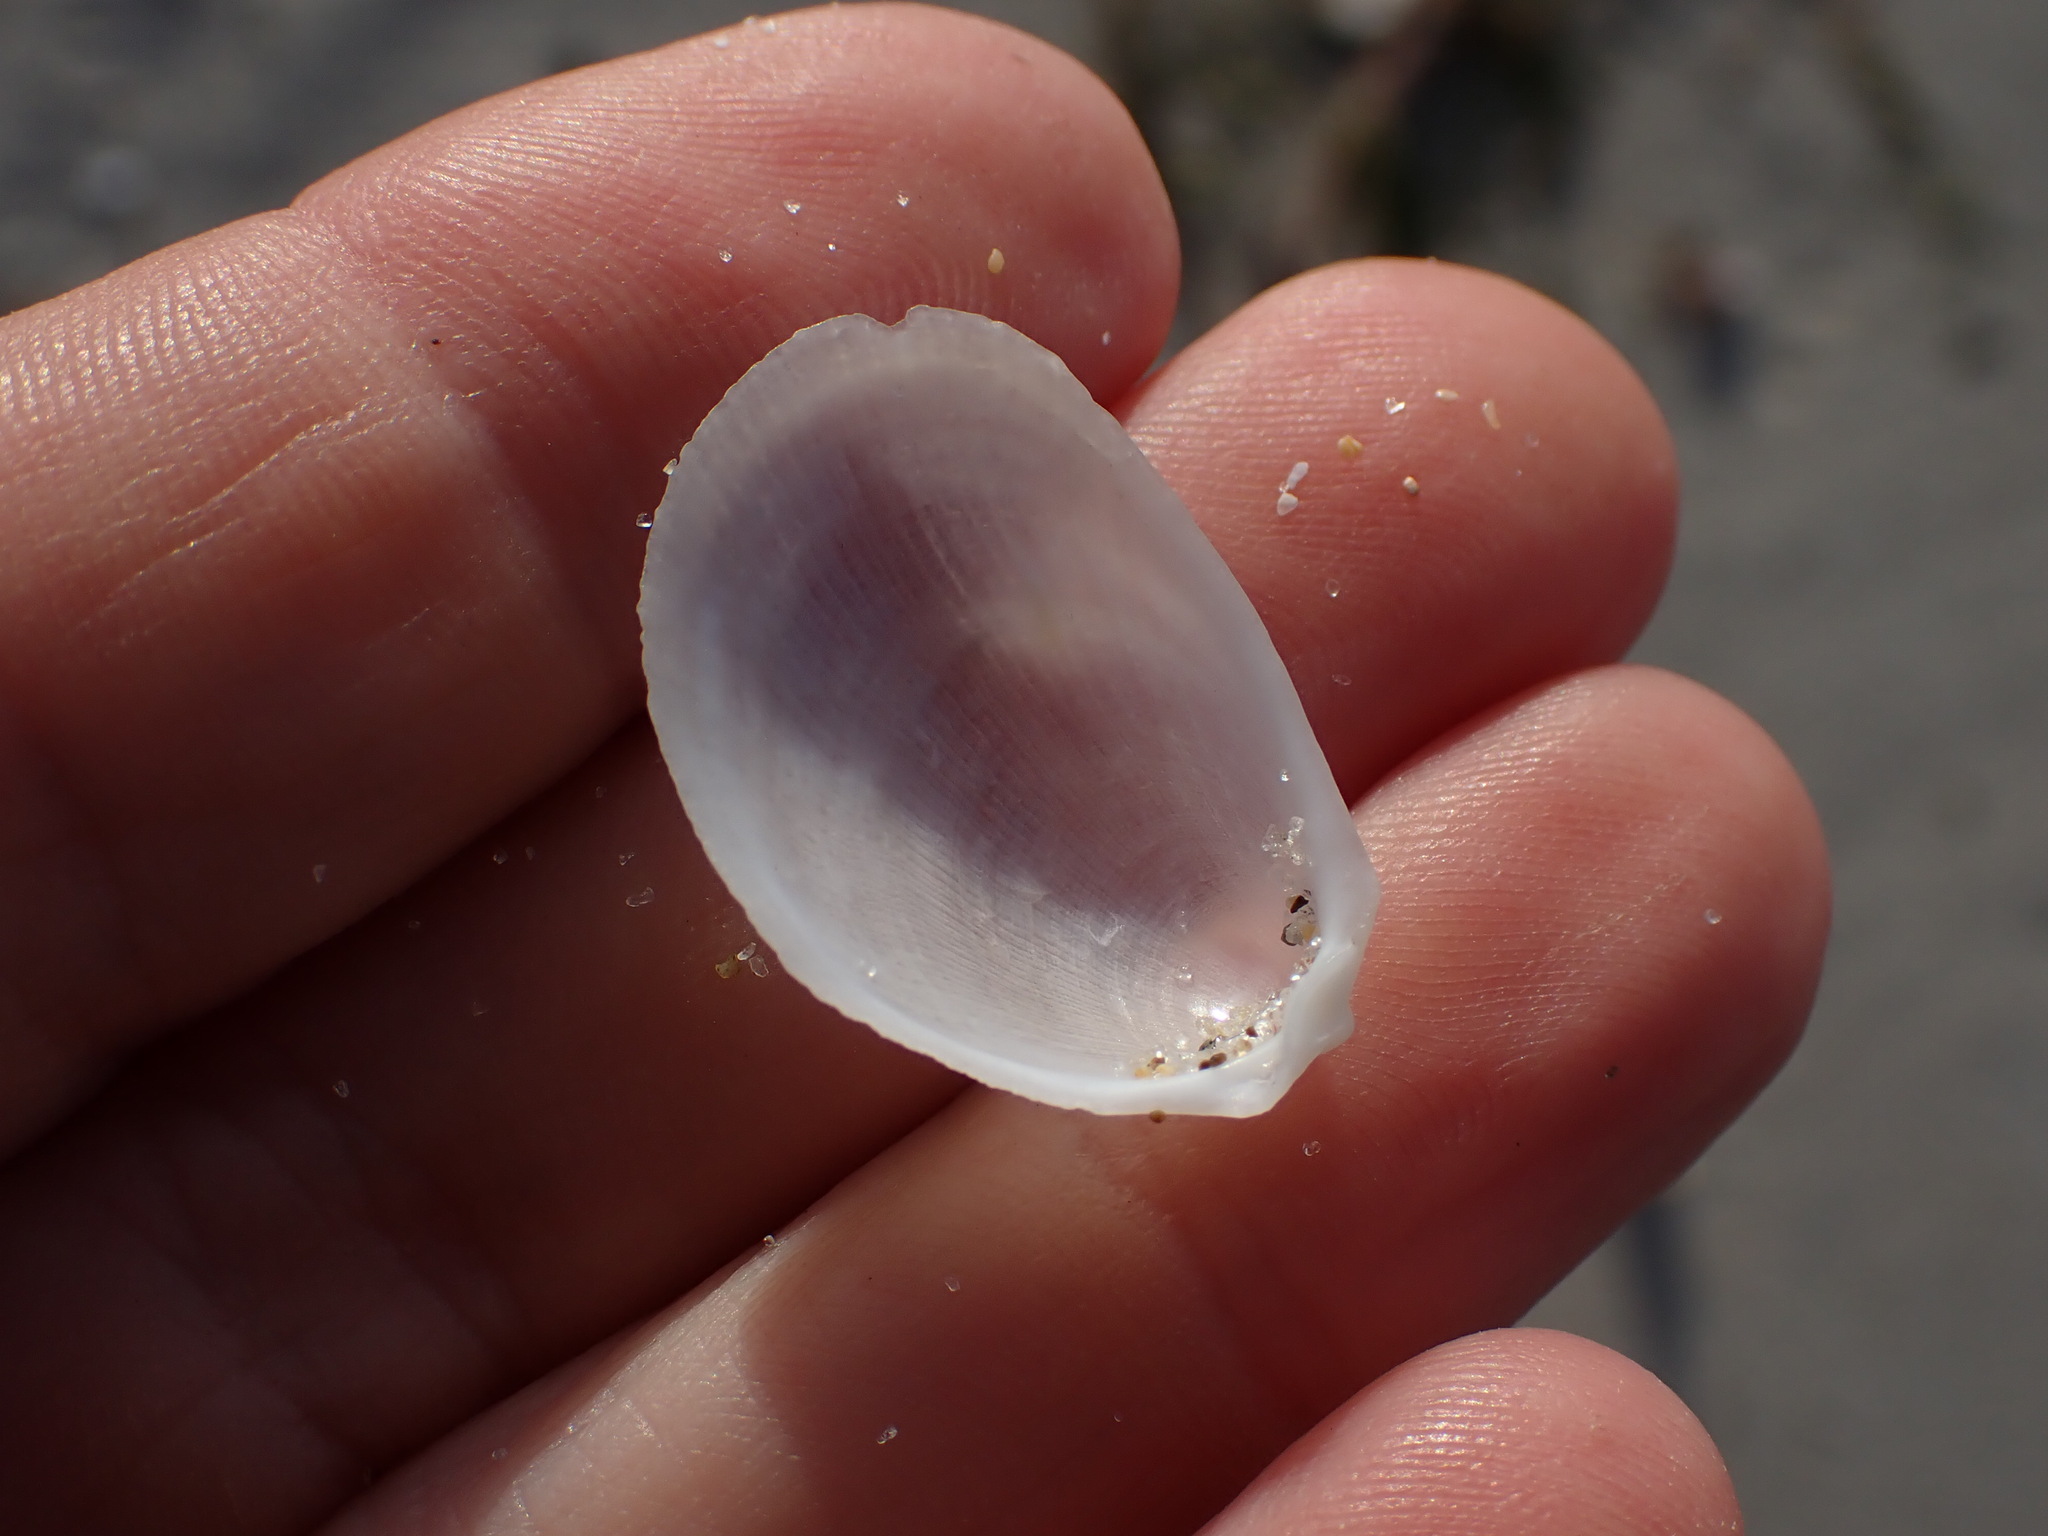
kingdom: Animalia
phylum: Mollusca
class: Bivalvia
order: Limida
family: Limidae
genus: Limaria
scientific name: Limaria orientalis
